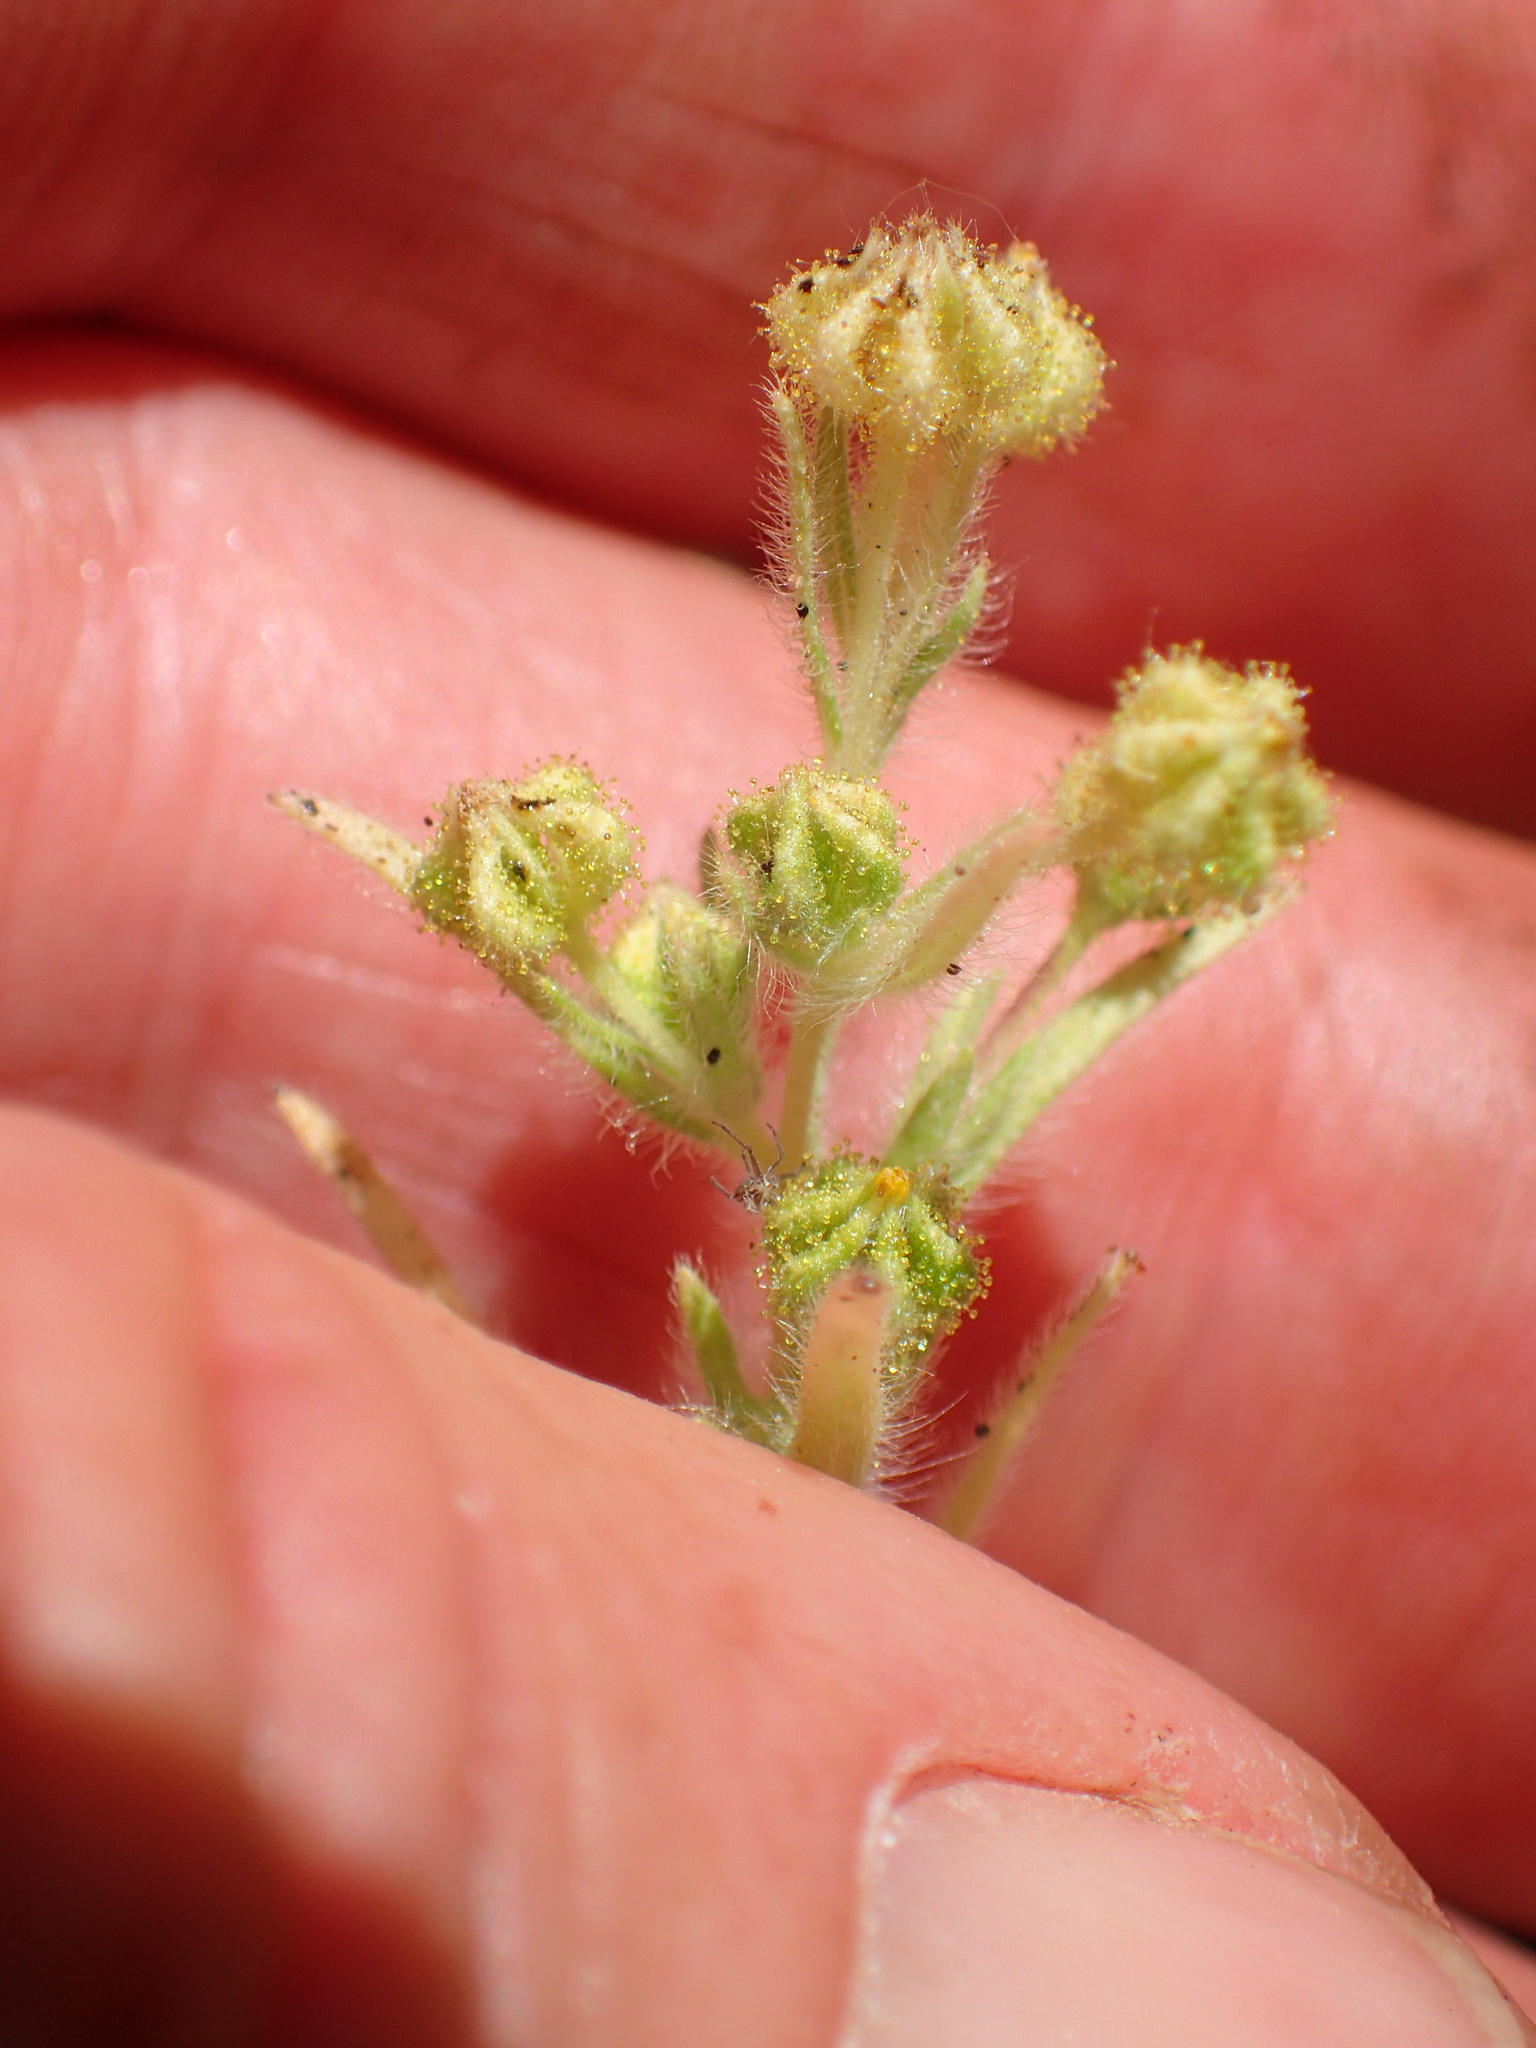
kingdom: Plantae
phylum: Tracheophyta
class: Magnoliopsida
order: Asterales
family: Asteraceae
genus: Madia
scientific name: Madia exigua
